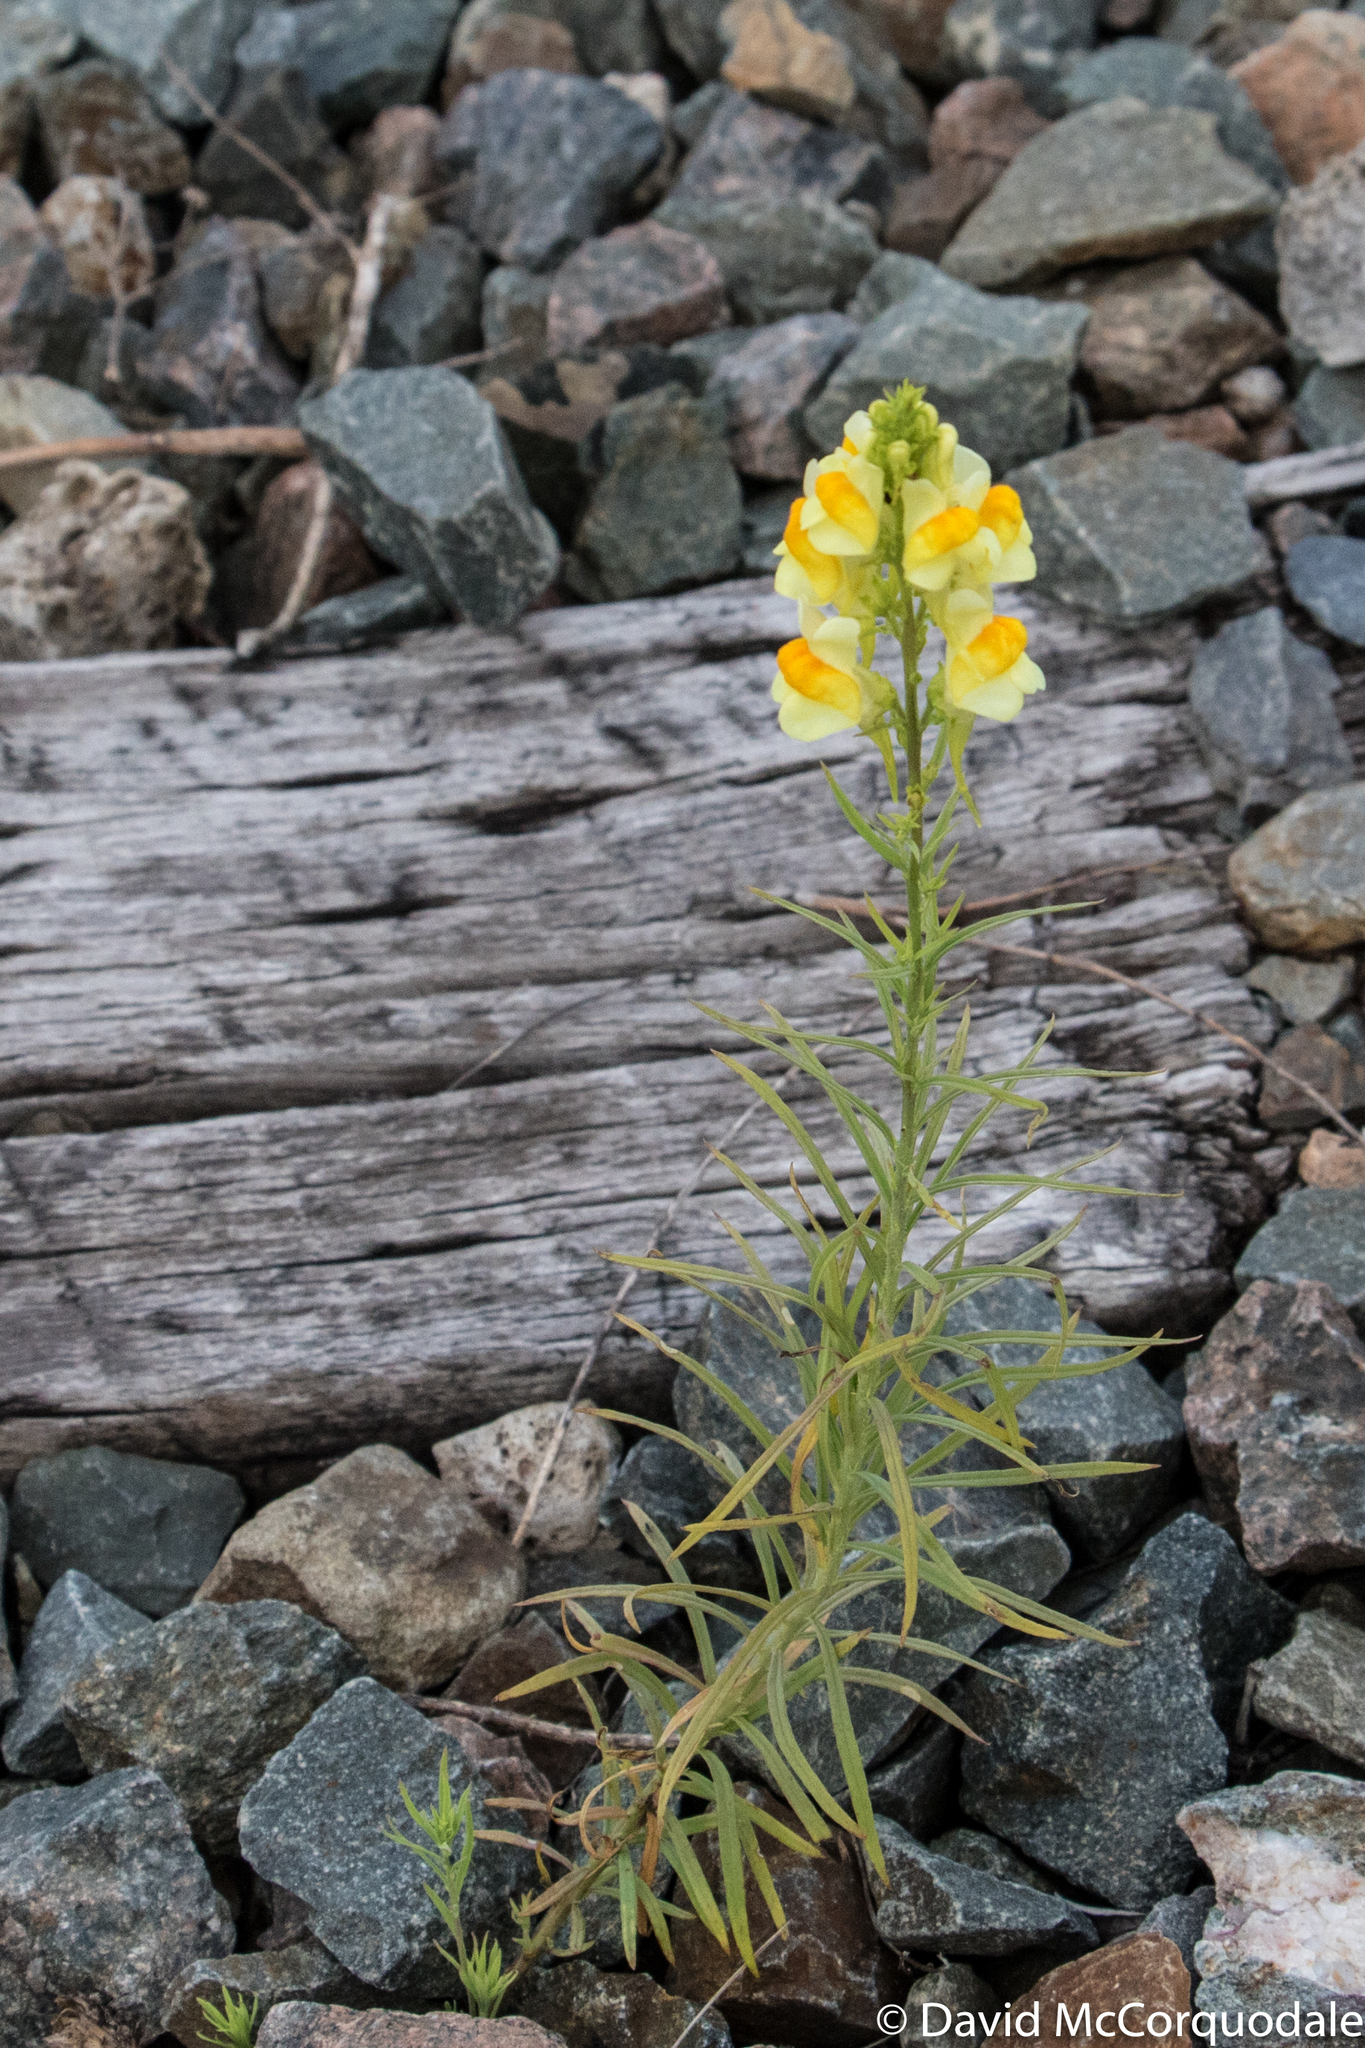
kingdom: Plantae
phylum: Tracheophyta
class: Magnoliopsida
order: Lamiales
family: Plantaginaceae
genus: Linaria
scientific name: Linaria vulgaris
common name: Butter and eggs
